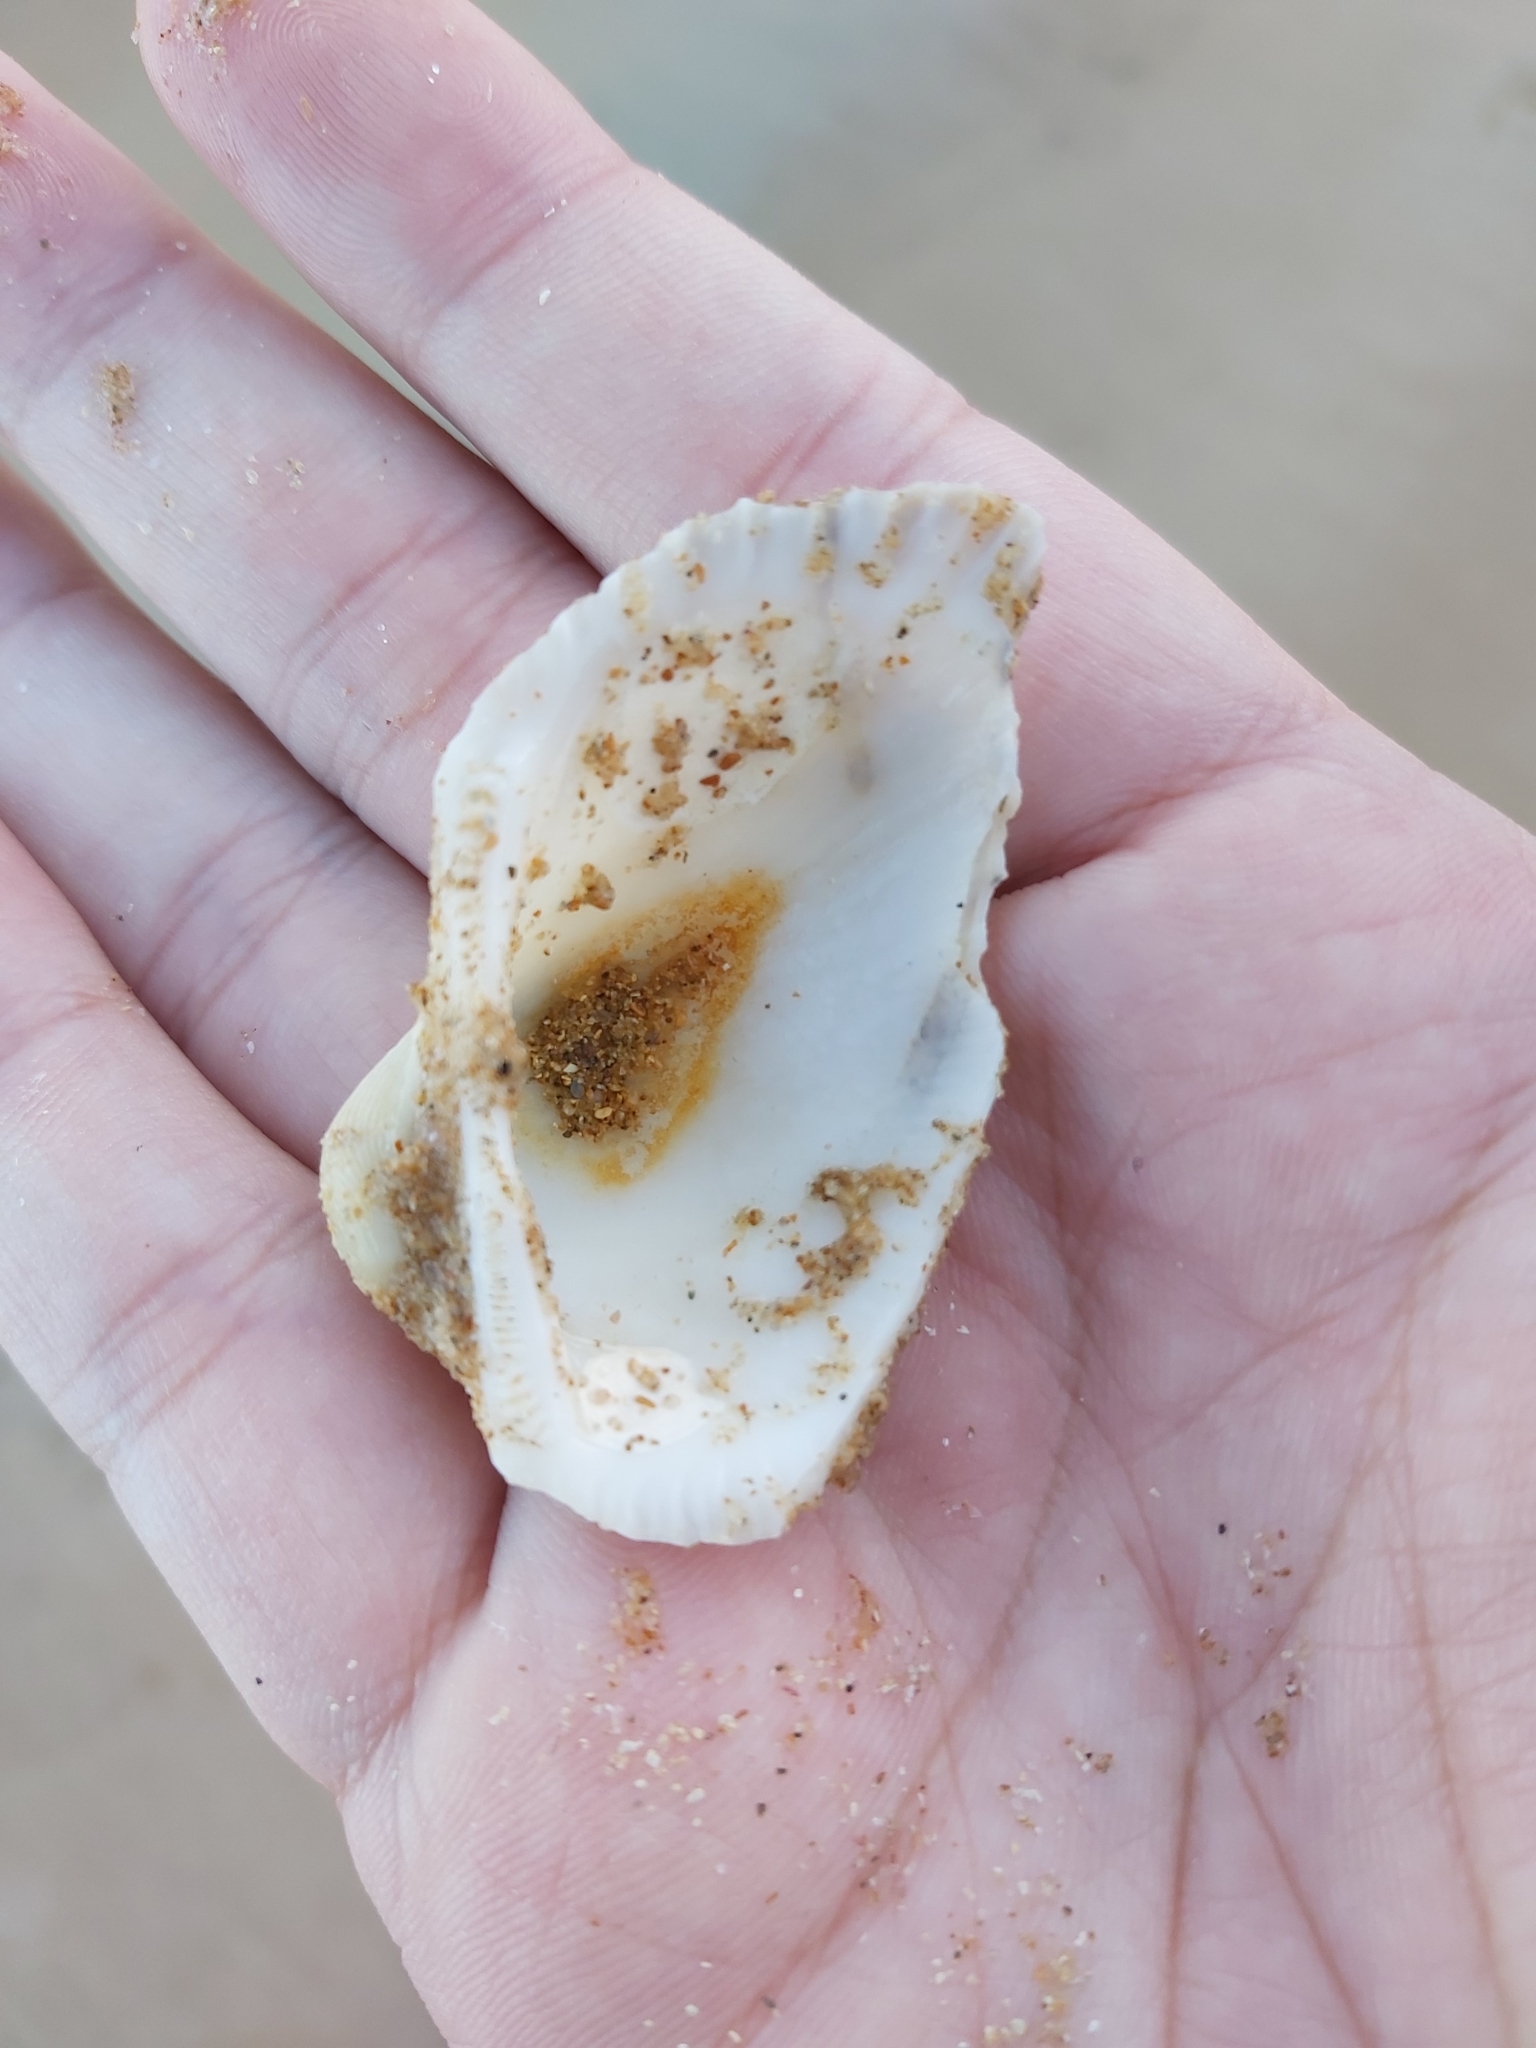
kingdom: Animalia
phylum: Mollusca
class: Bivalvia
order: Arcida
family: Arcidae
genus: Anadara
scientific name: Anadara trapezia
